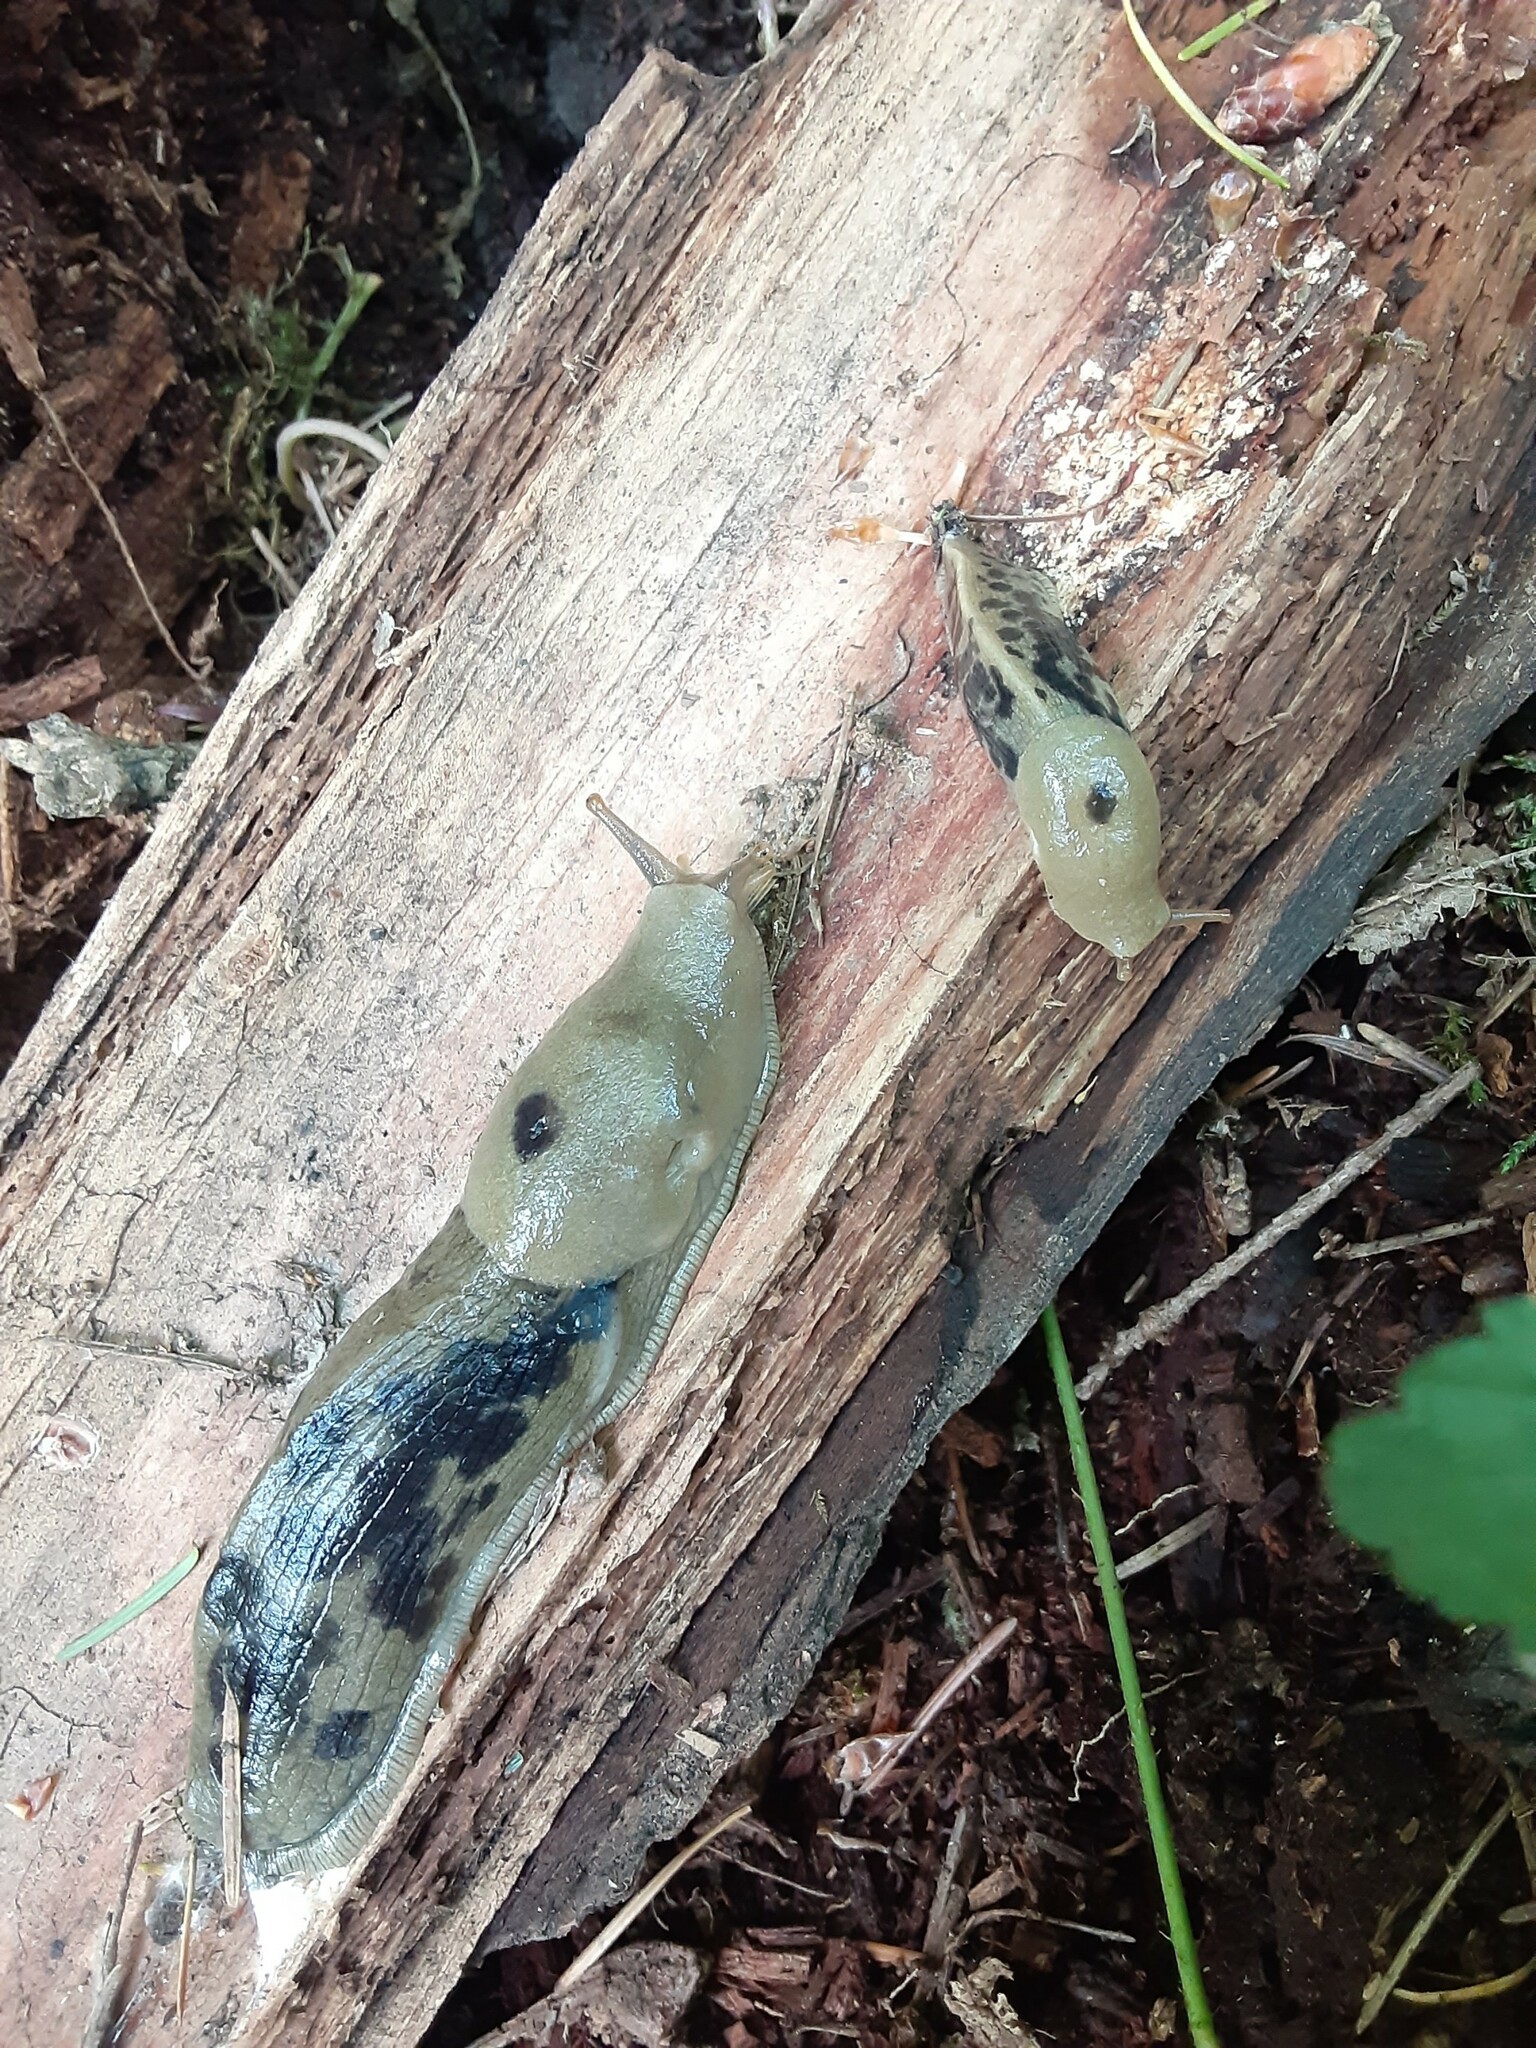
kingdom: Animalia
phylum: Mollusca
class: Gastropoda
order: Stylommatophora
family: Ariolimacidae
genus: Ariolimax
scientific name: Ariolimax columbianus
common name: Pacific banana slug
